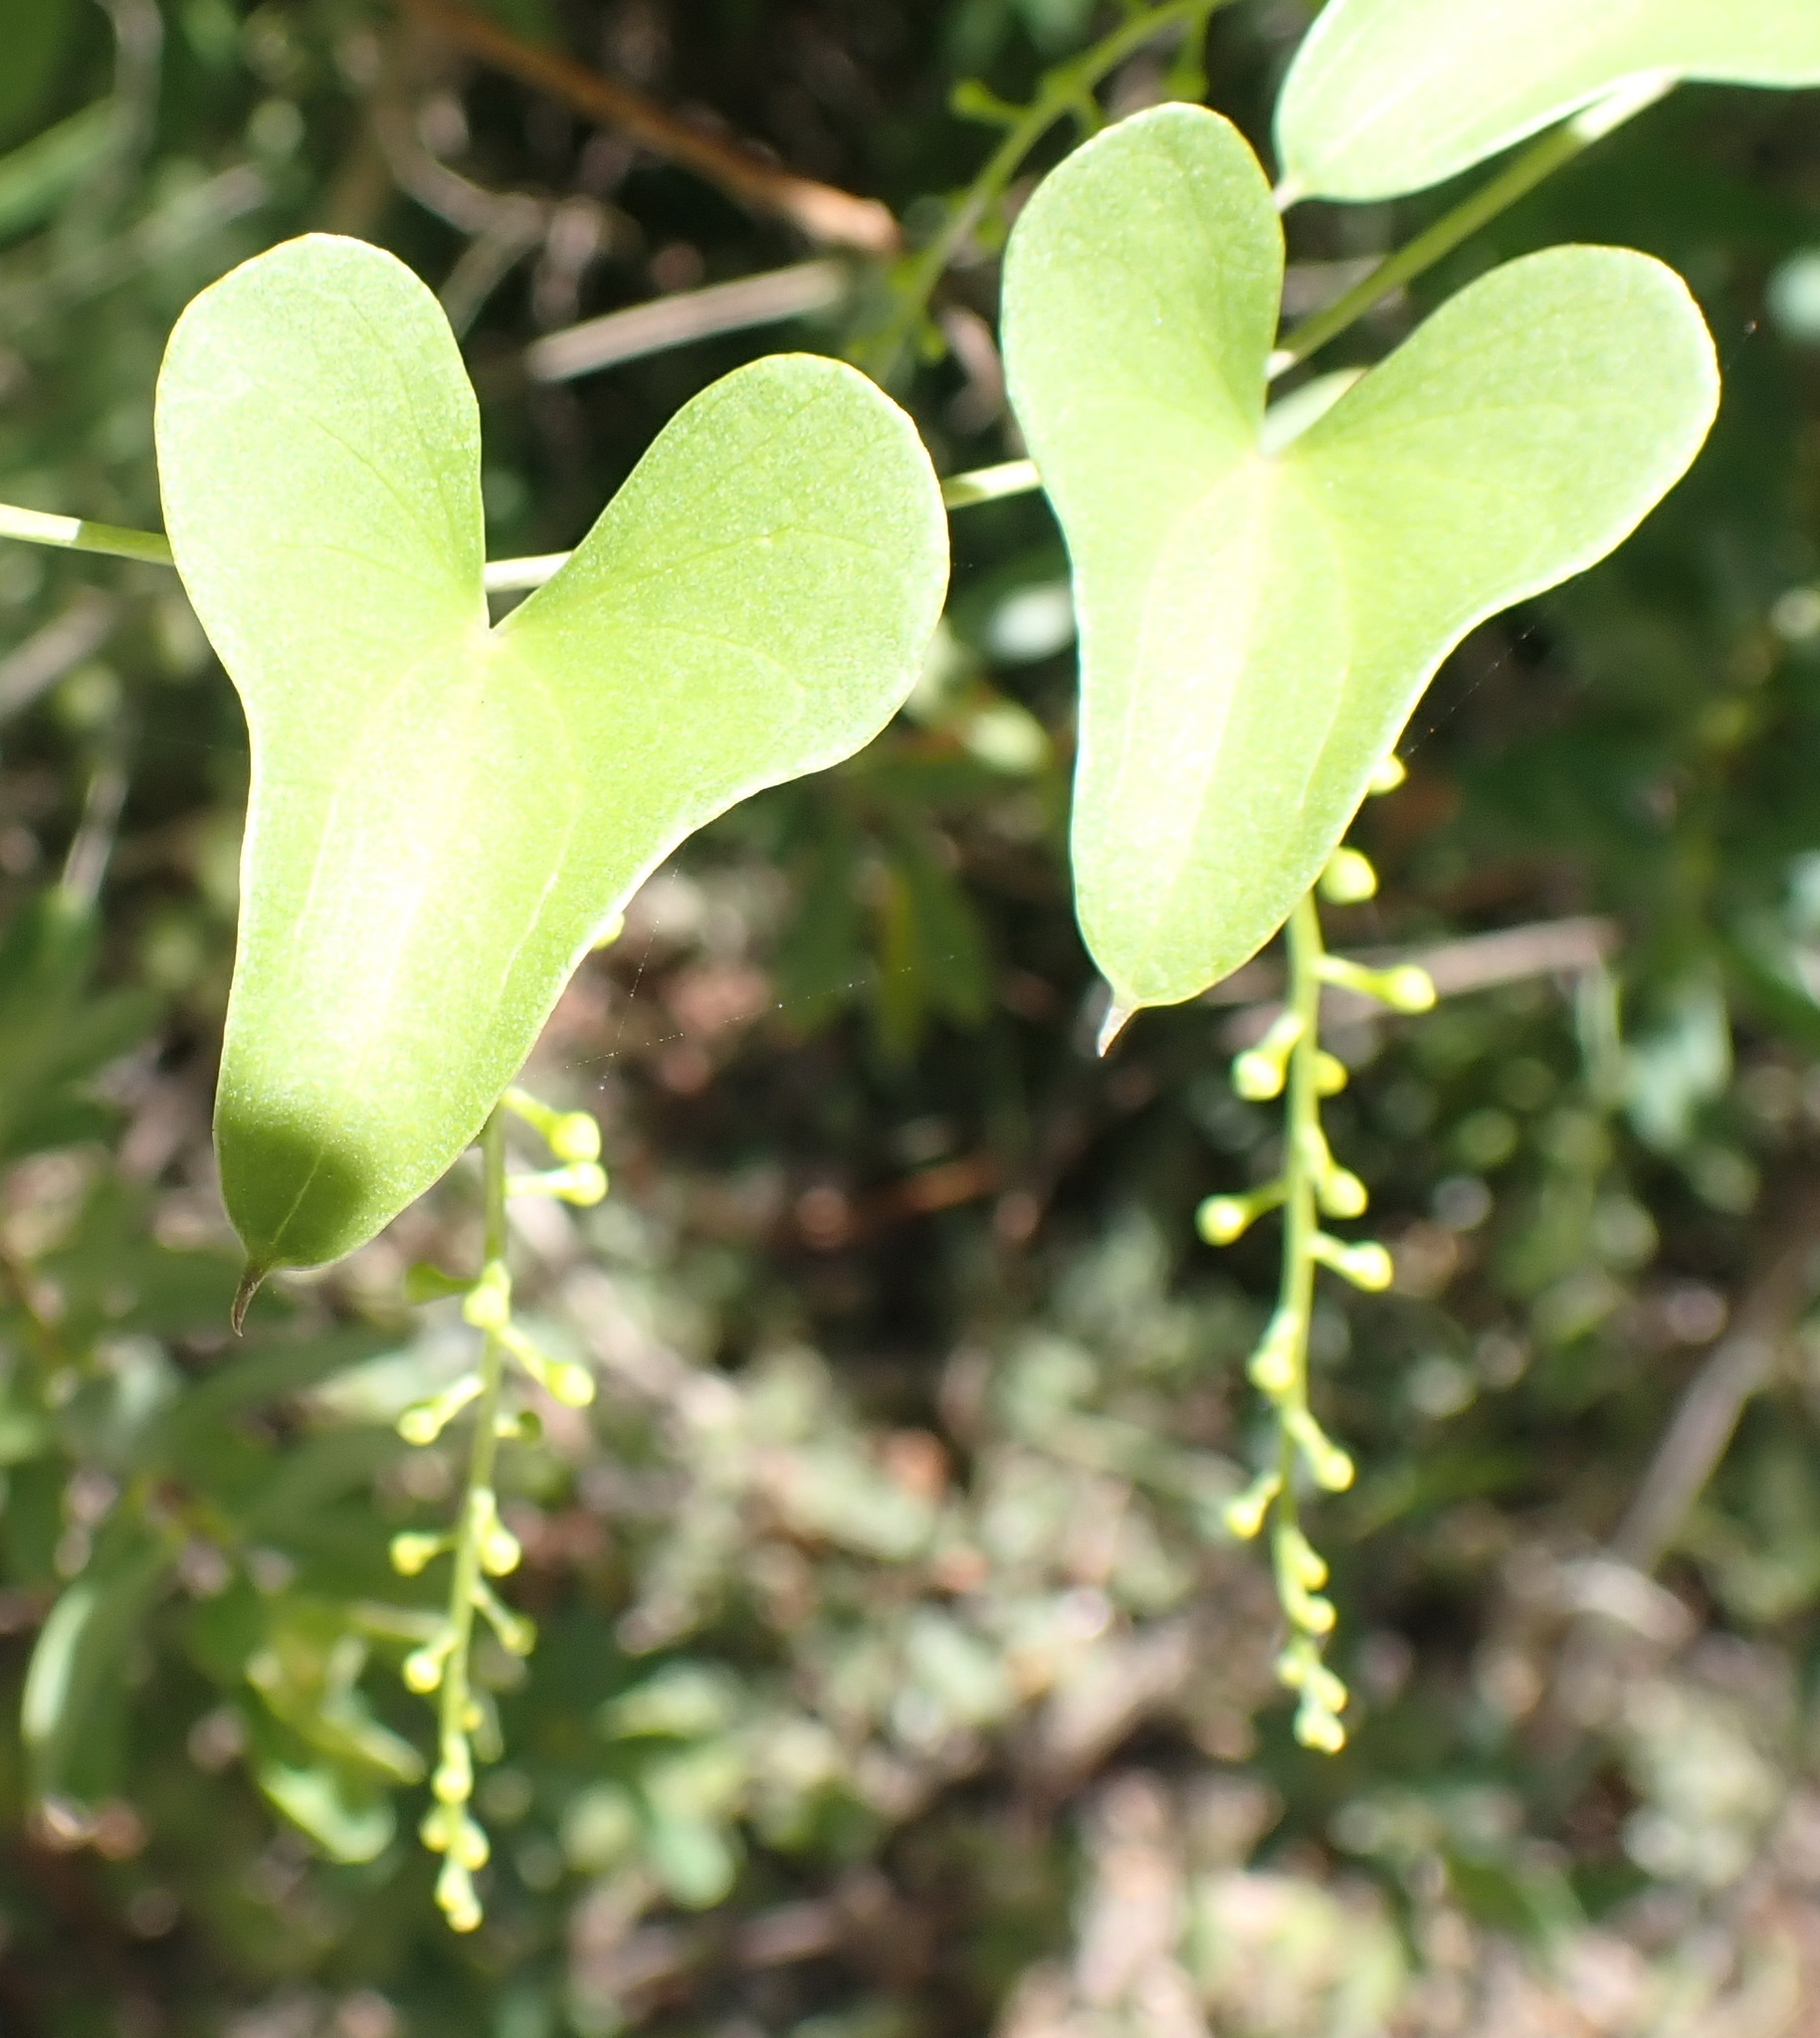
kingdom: Plantae
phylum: Tracheophyta
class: Liliopsida
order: Dioscoreales
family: Dioscoreaceae
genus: Dioscorea
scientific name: Dioscorea sylvatica
